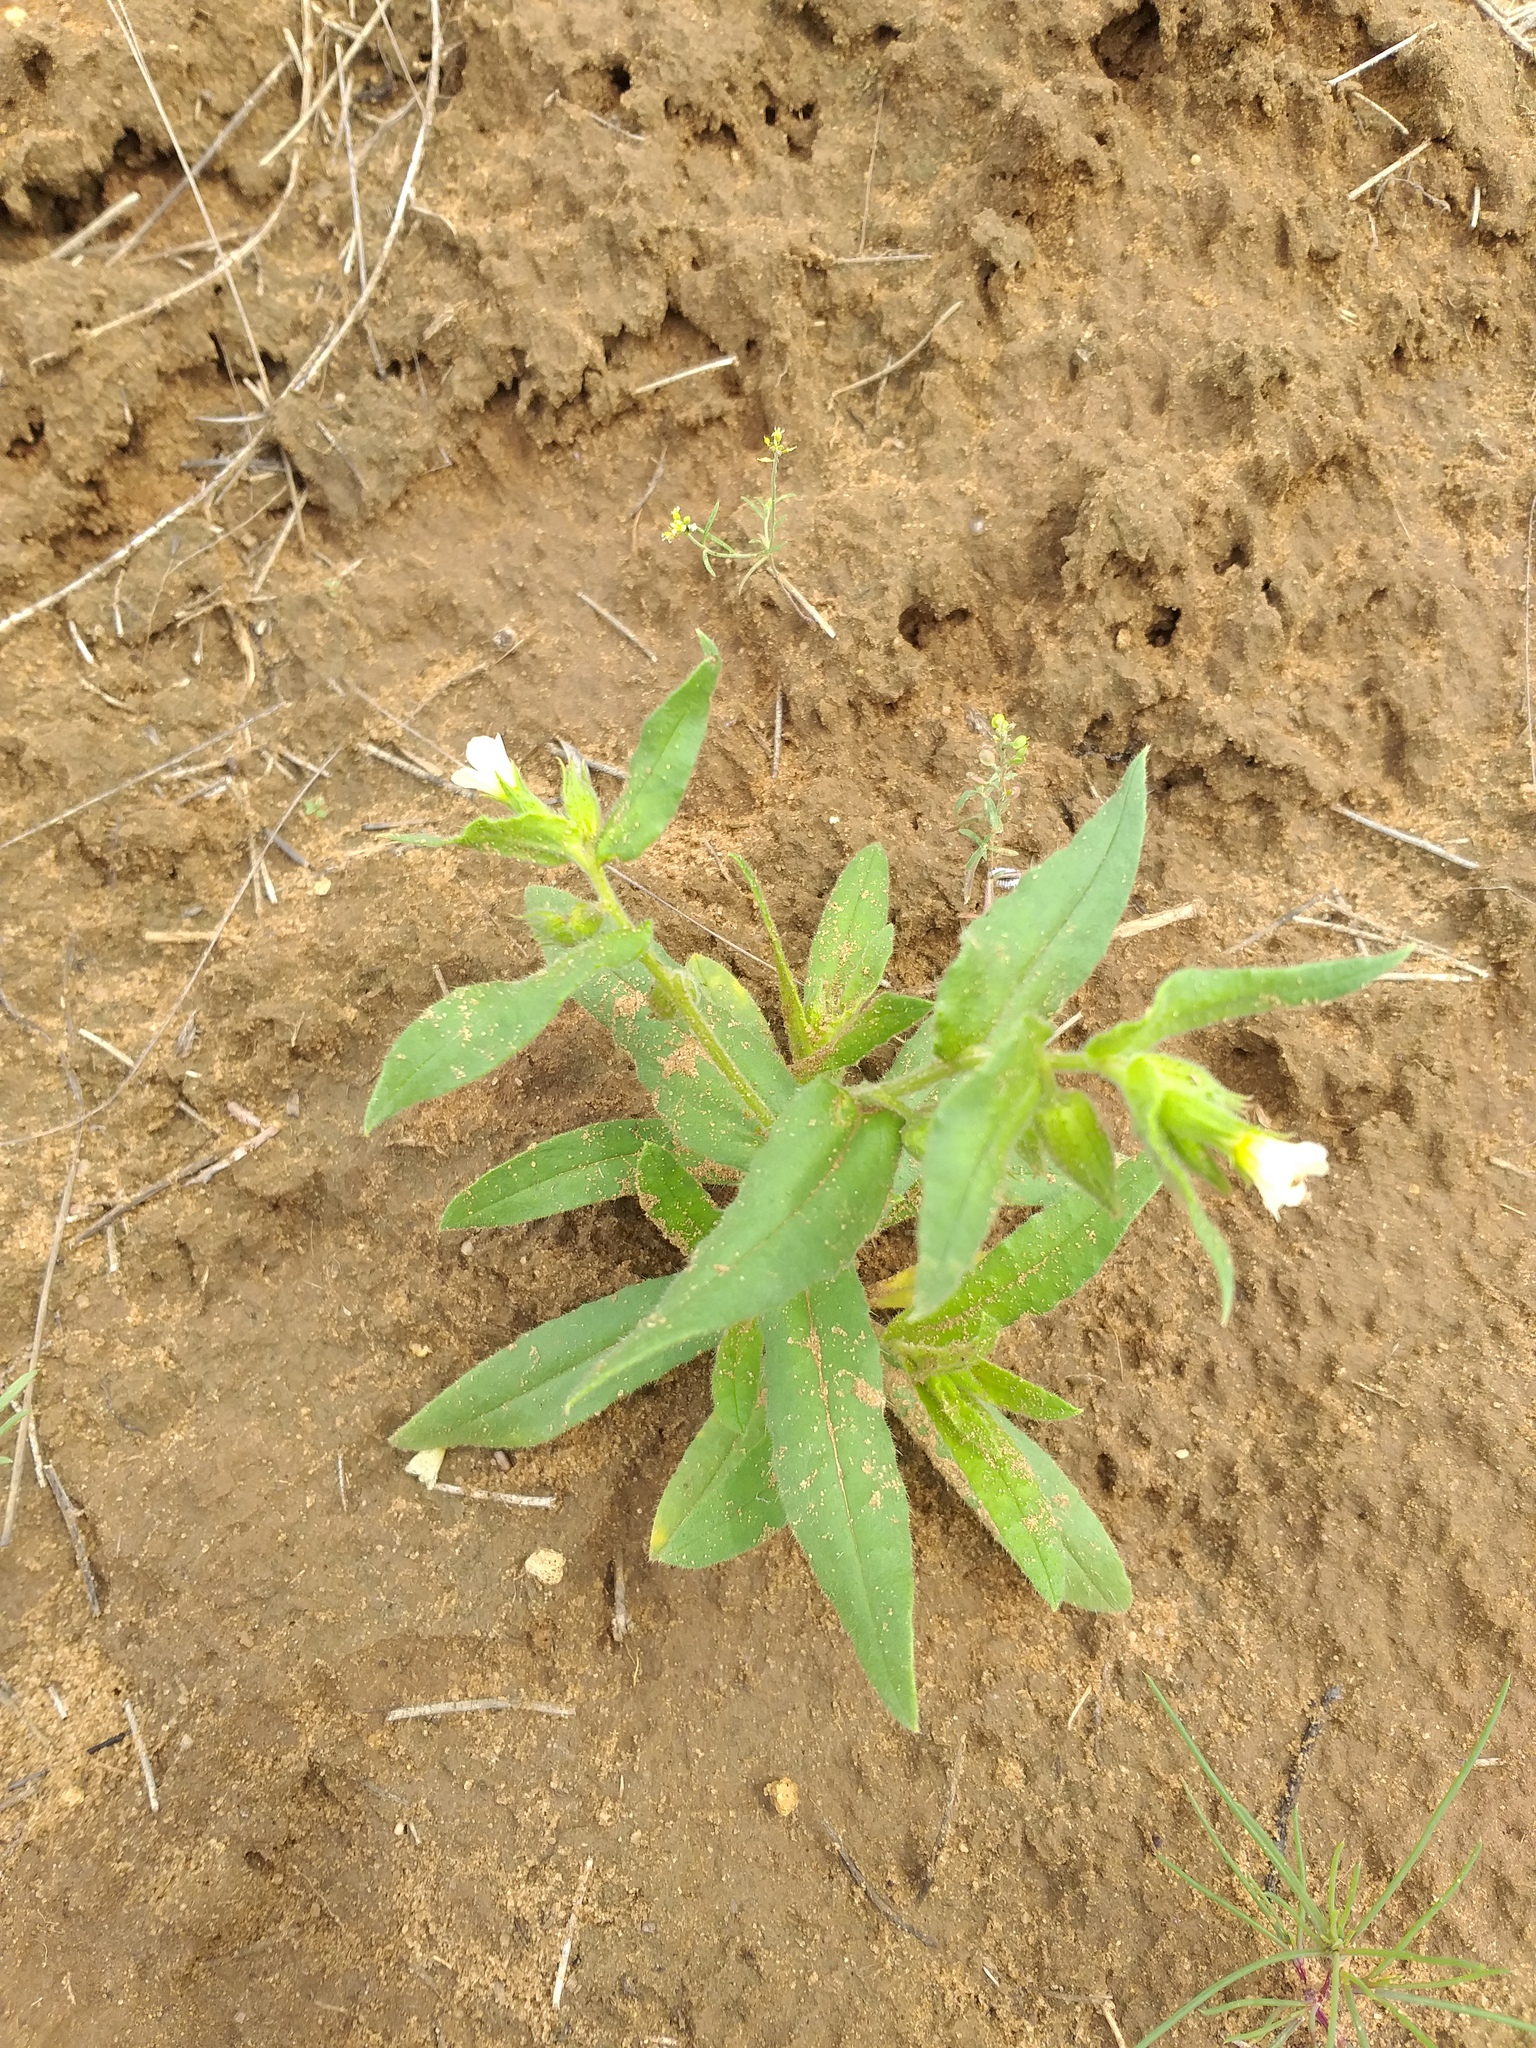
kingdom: Plantae
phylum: Tracheophyta
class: Magnoliopsida
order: Boraginales
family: Boraginaceae
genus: Nonea
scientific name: Nonea lutea
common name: Yellow nonea
